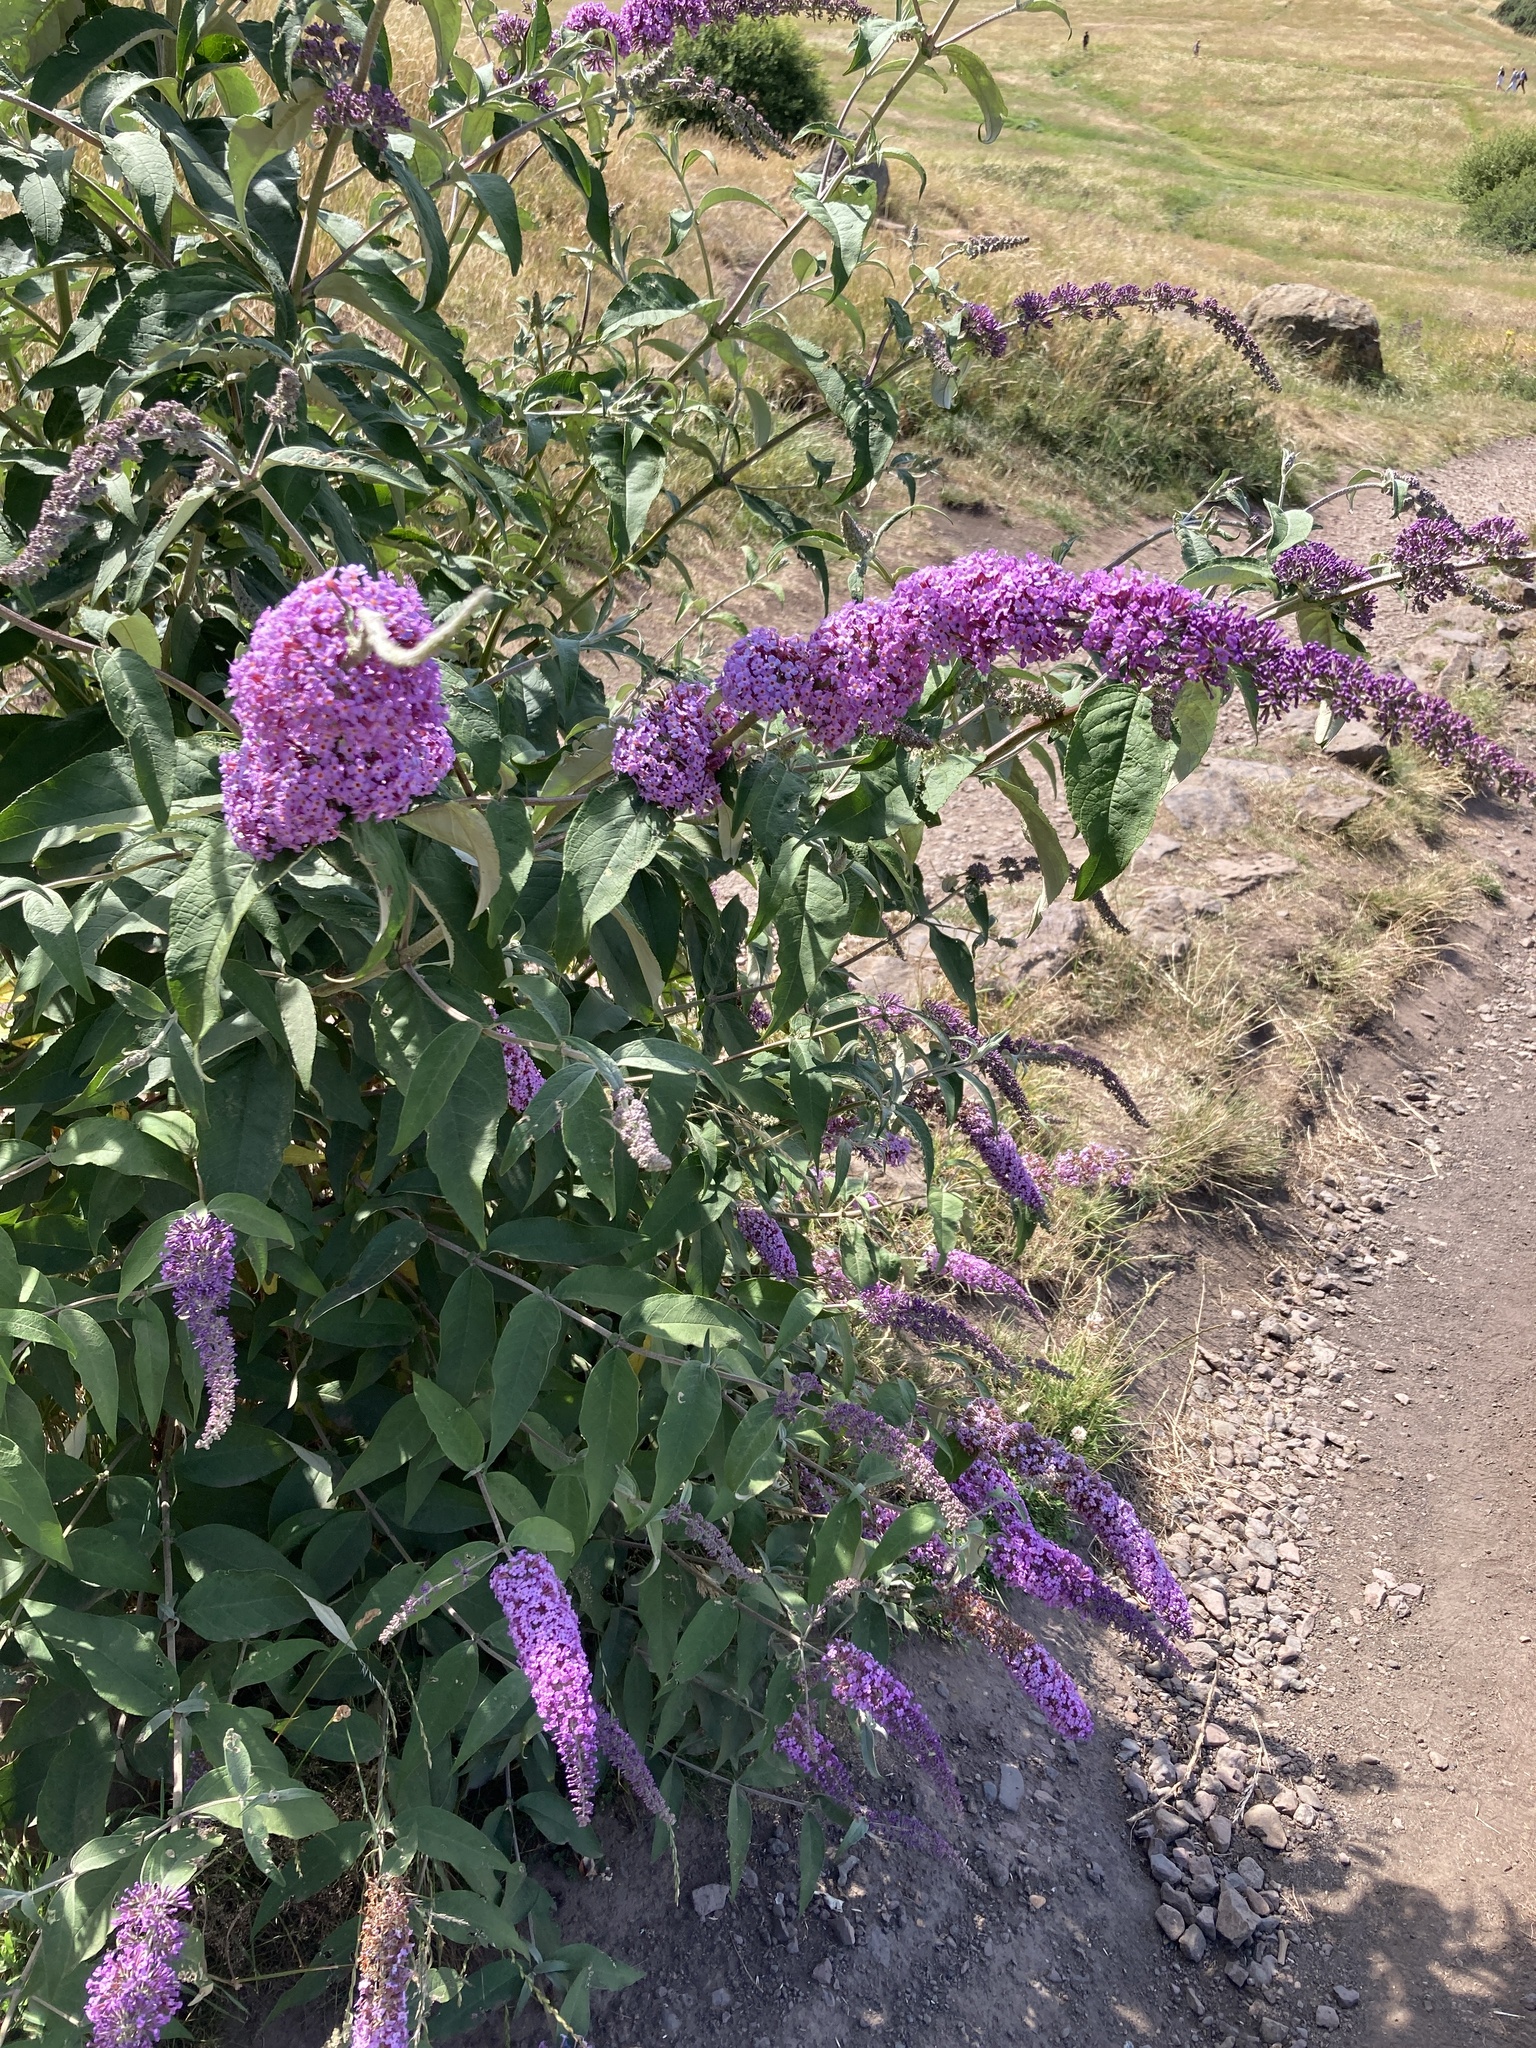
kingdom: Plantae
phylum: Tracheophyta
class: Magnoliopsida
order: Lamiales
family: Scrophulariaceae
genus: Buddleja
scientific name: Buddleja davidii
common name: Butterfly-bush
